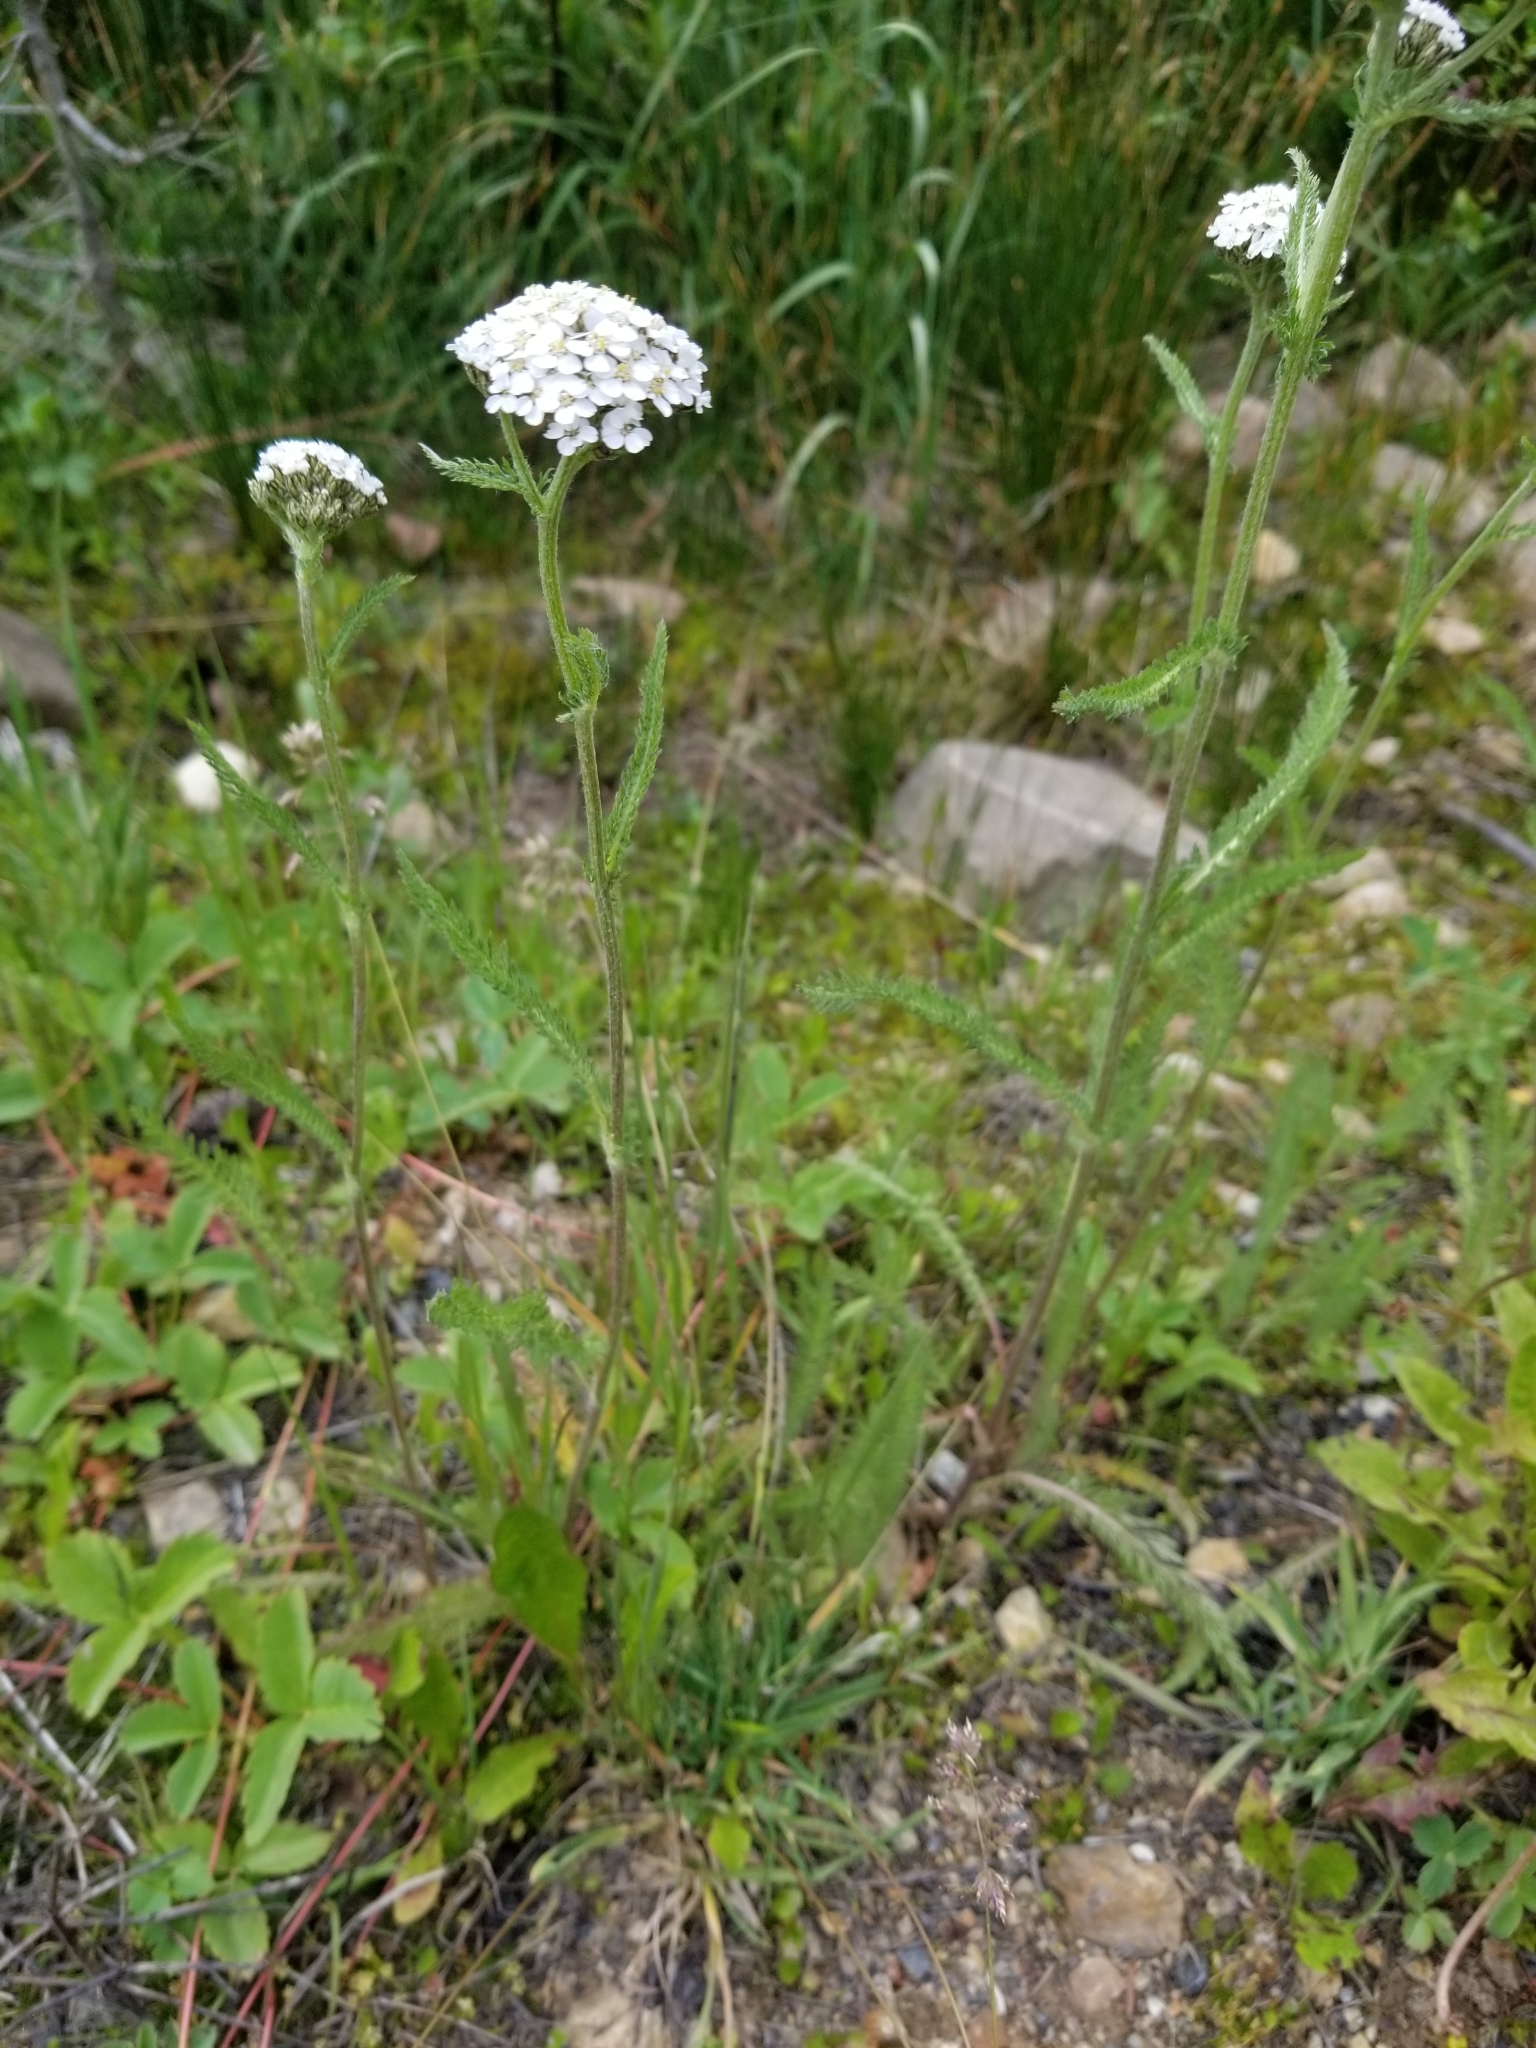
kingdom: Plantae
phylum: Tracheophyta
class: Magnoliopsida
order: Asterales
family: Asteraceae
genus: Achillea
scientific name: Achillea millefolium
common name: Yarrow
